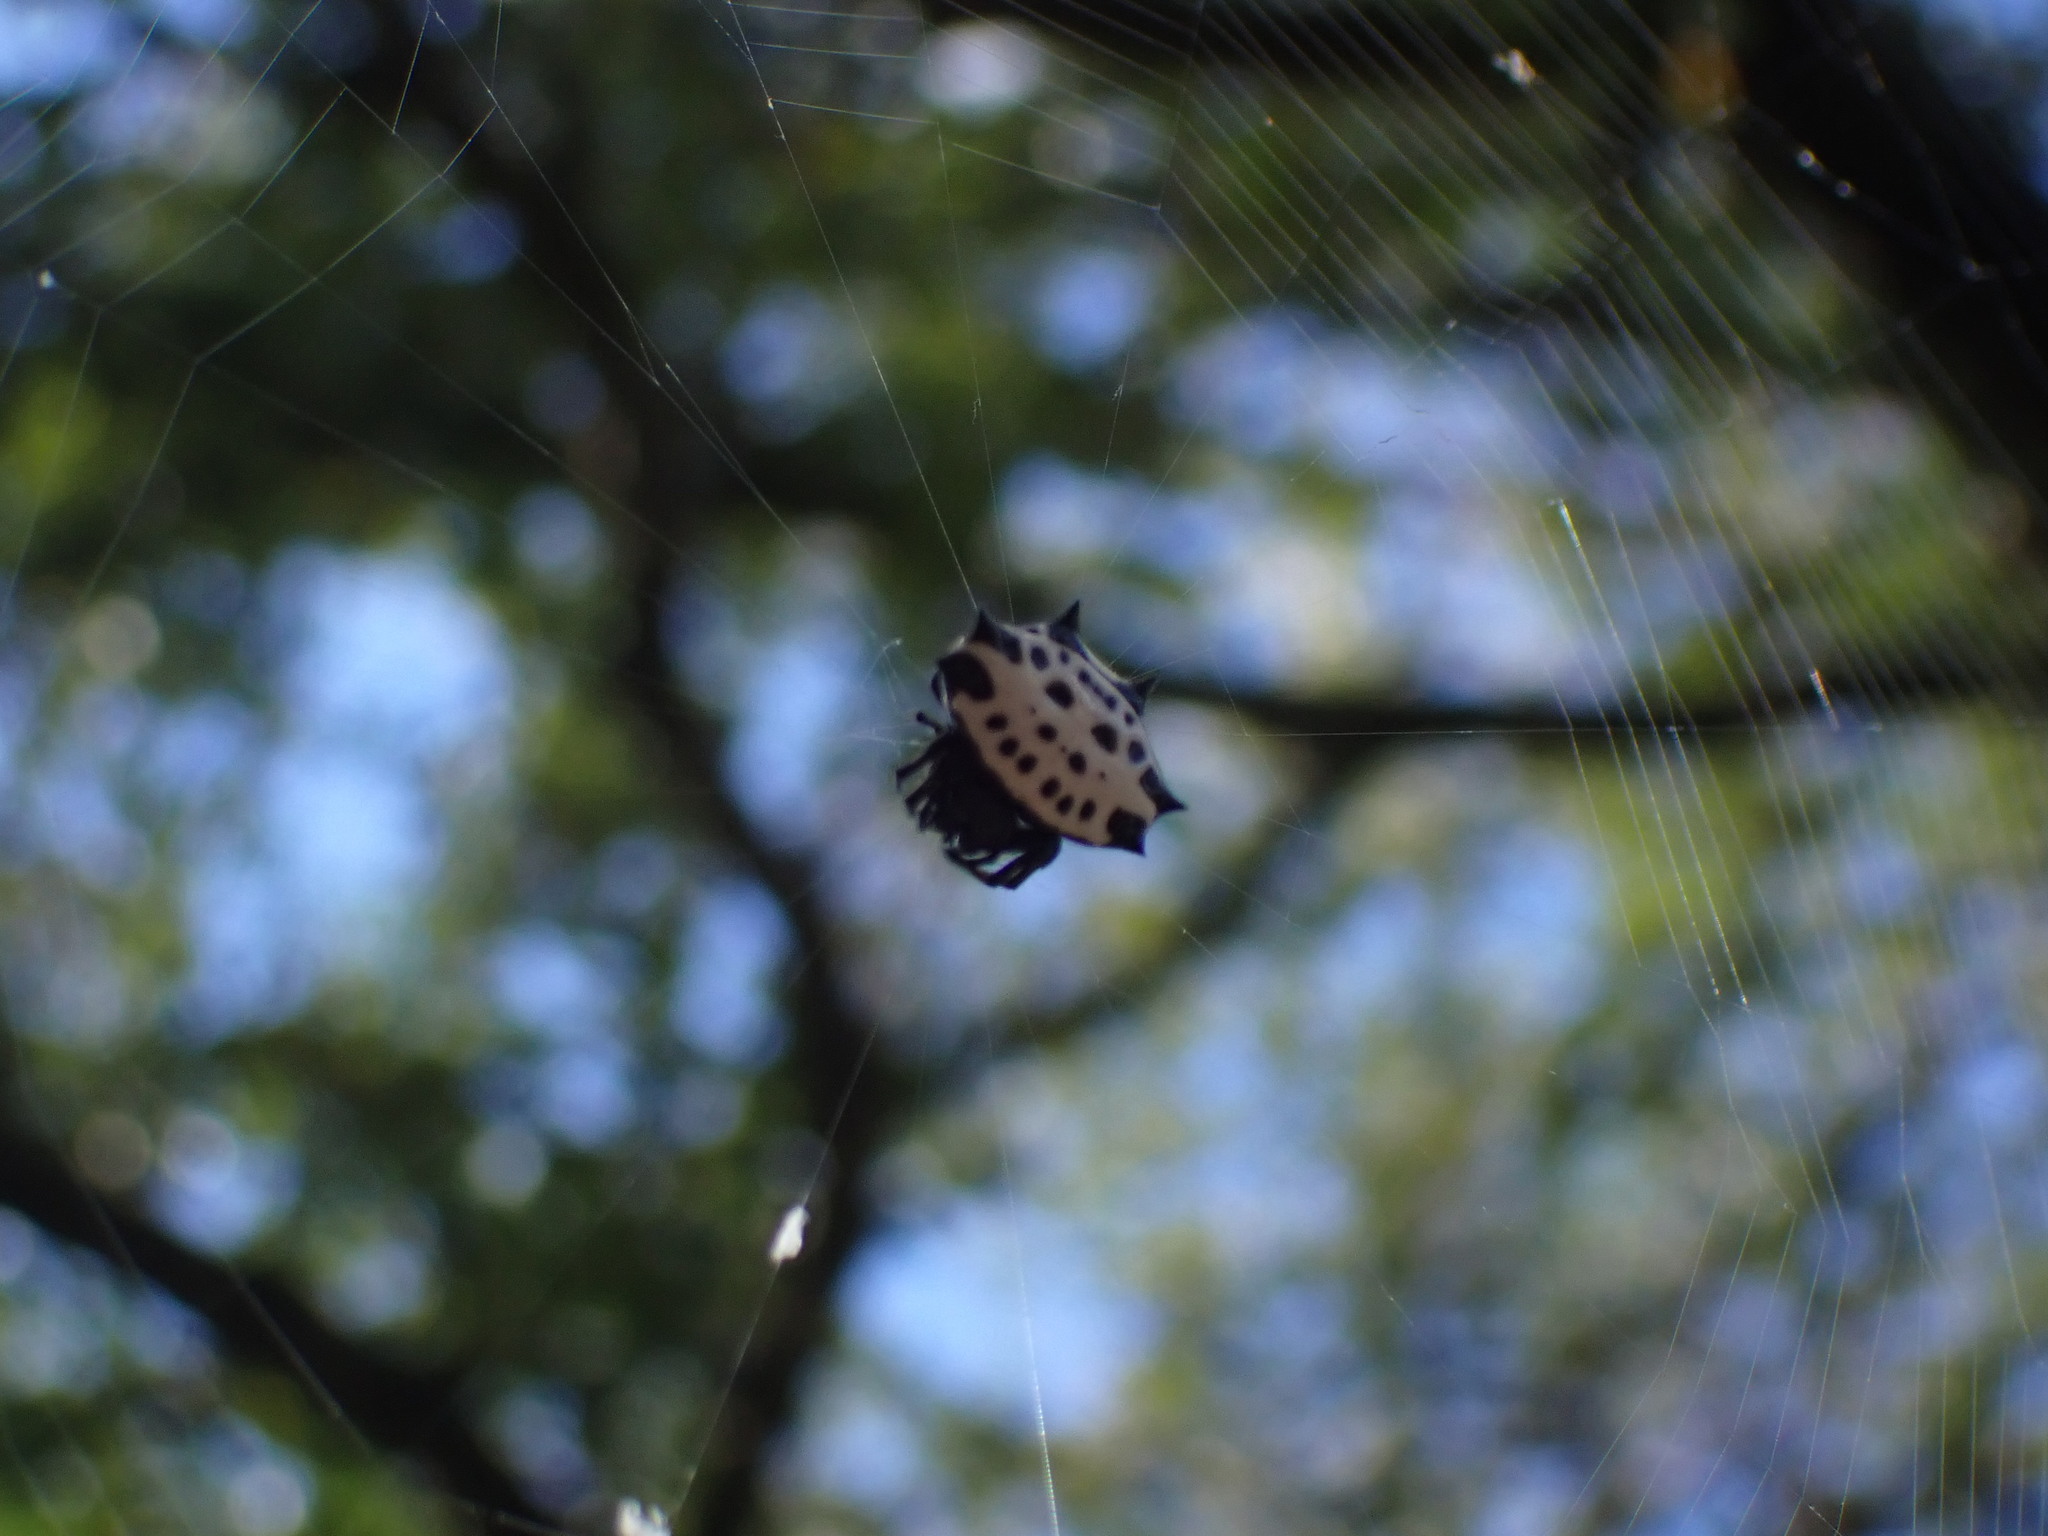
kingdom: Animalia
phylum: Arthropoda
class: Arachnida
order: Araneae
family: Araneidae
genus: Gasteracantha
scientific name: Gasteracantha cancriformis
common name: Orb weavers
